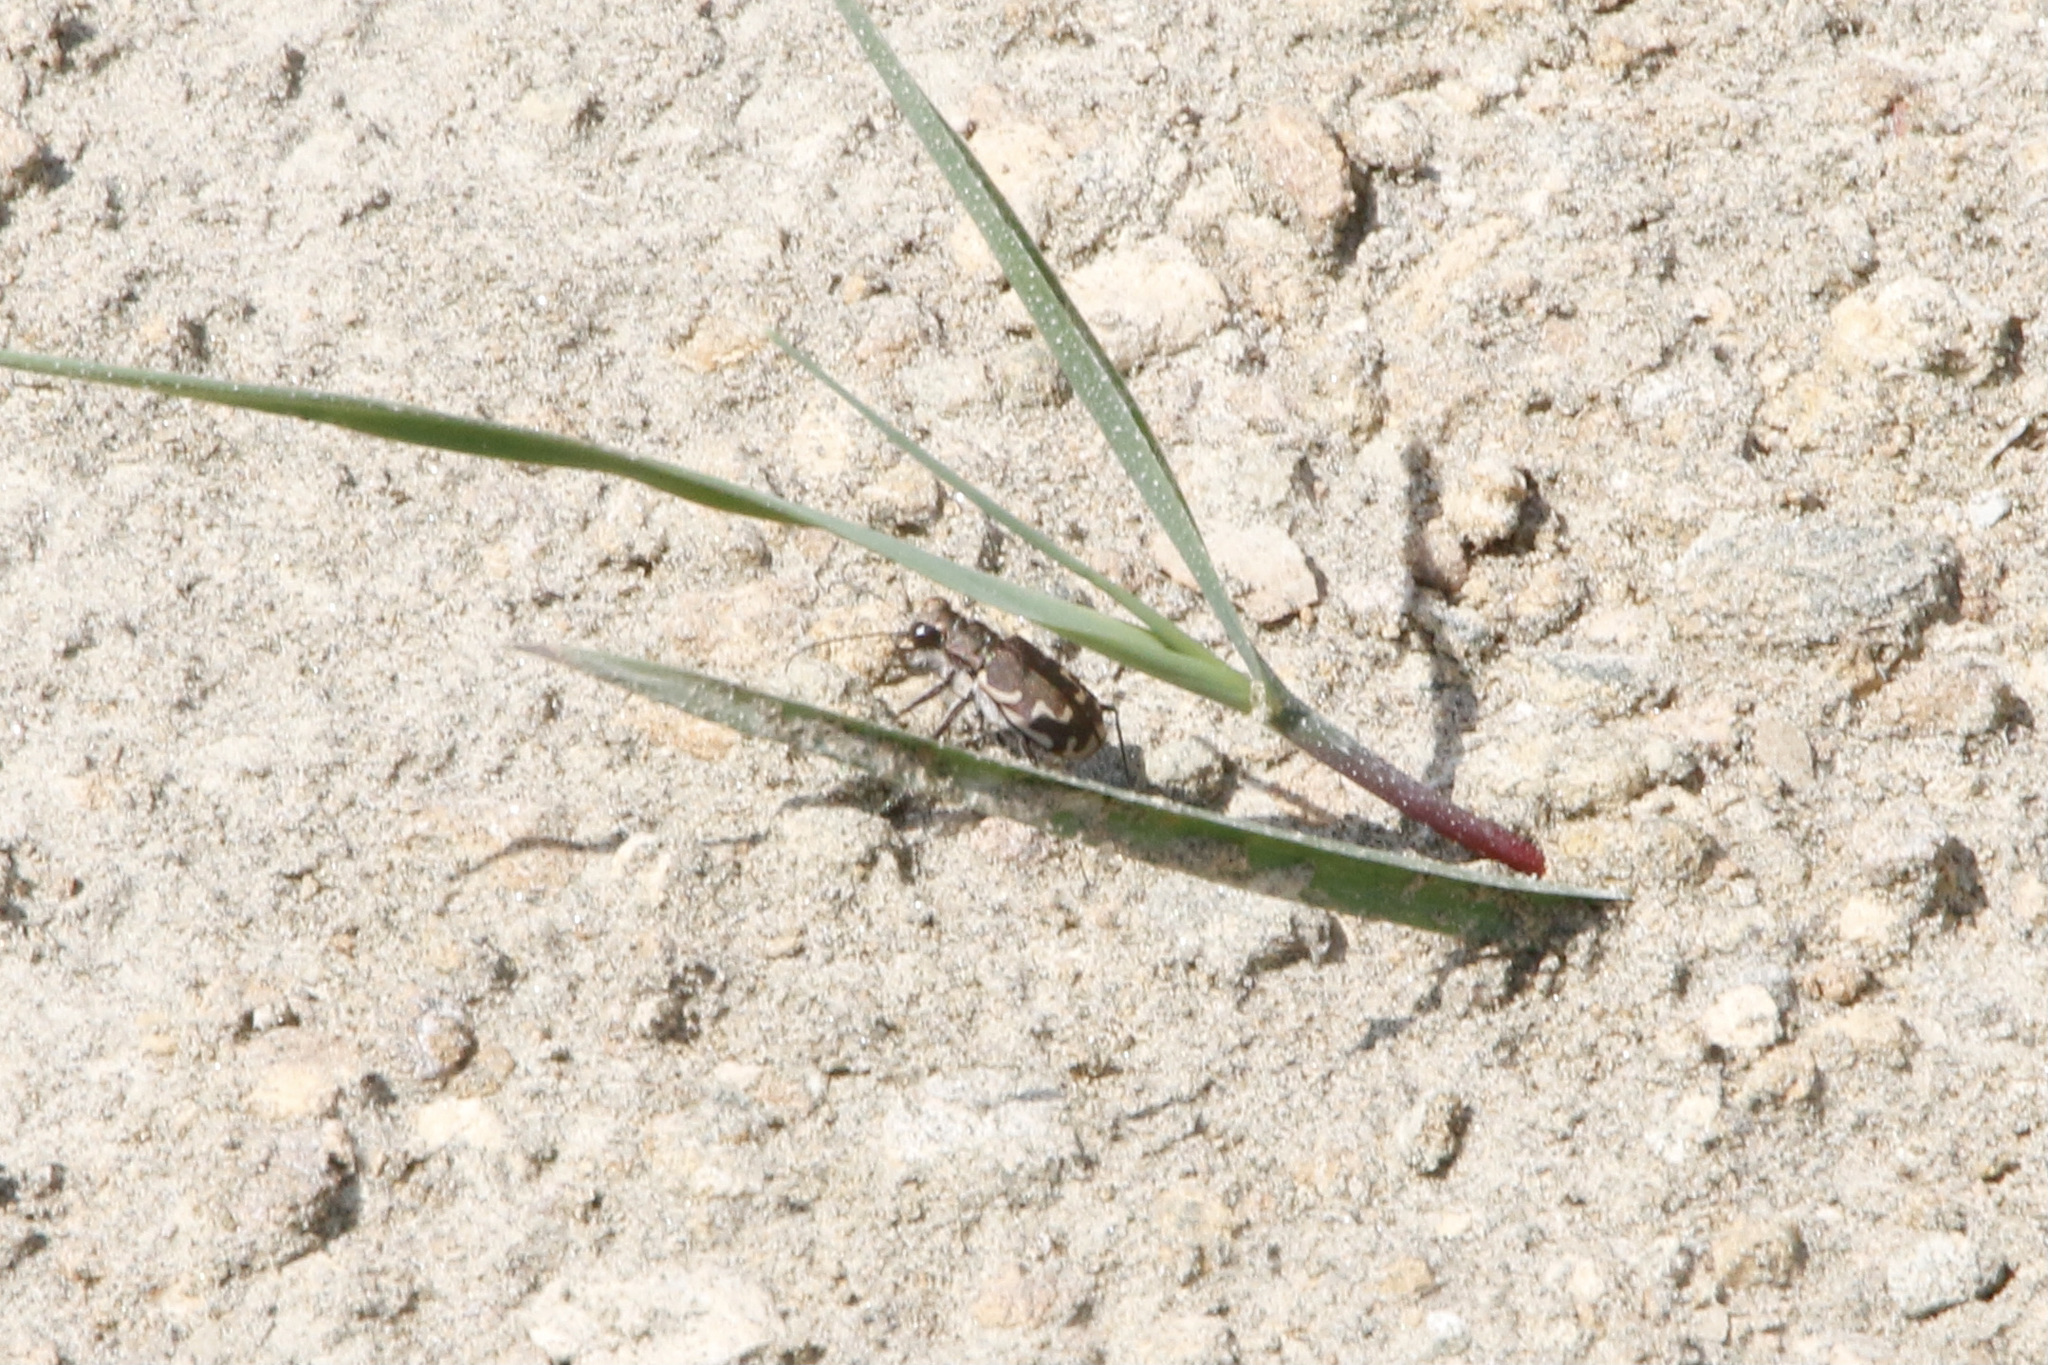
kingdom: Animalia
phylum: Arthropoda
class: Insecta
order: Coleoptera
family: Carabidae
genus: Cicindela
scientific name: Cicindela repanda
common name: Bronzed tiger beetle
